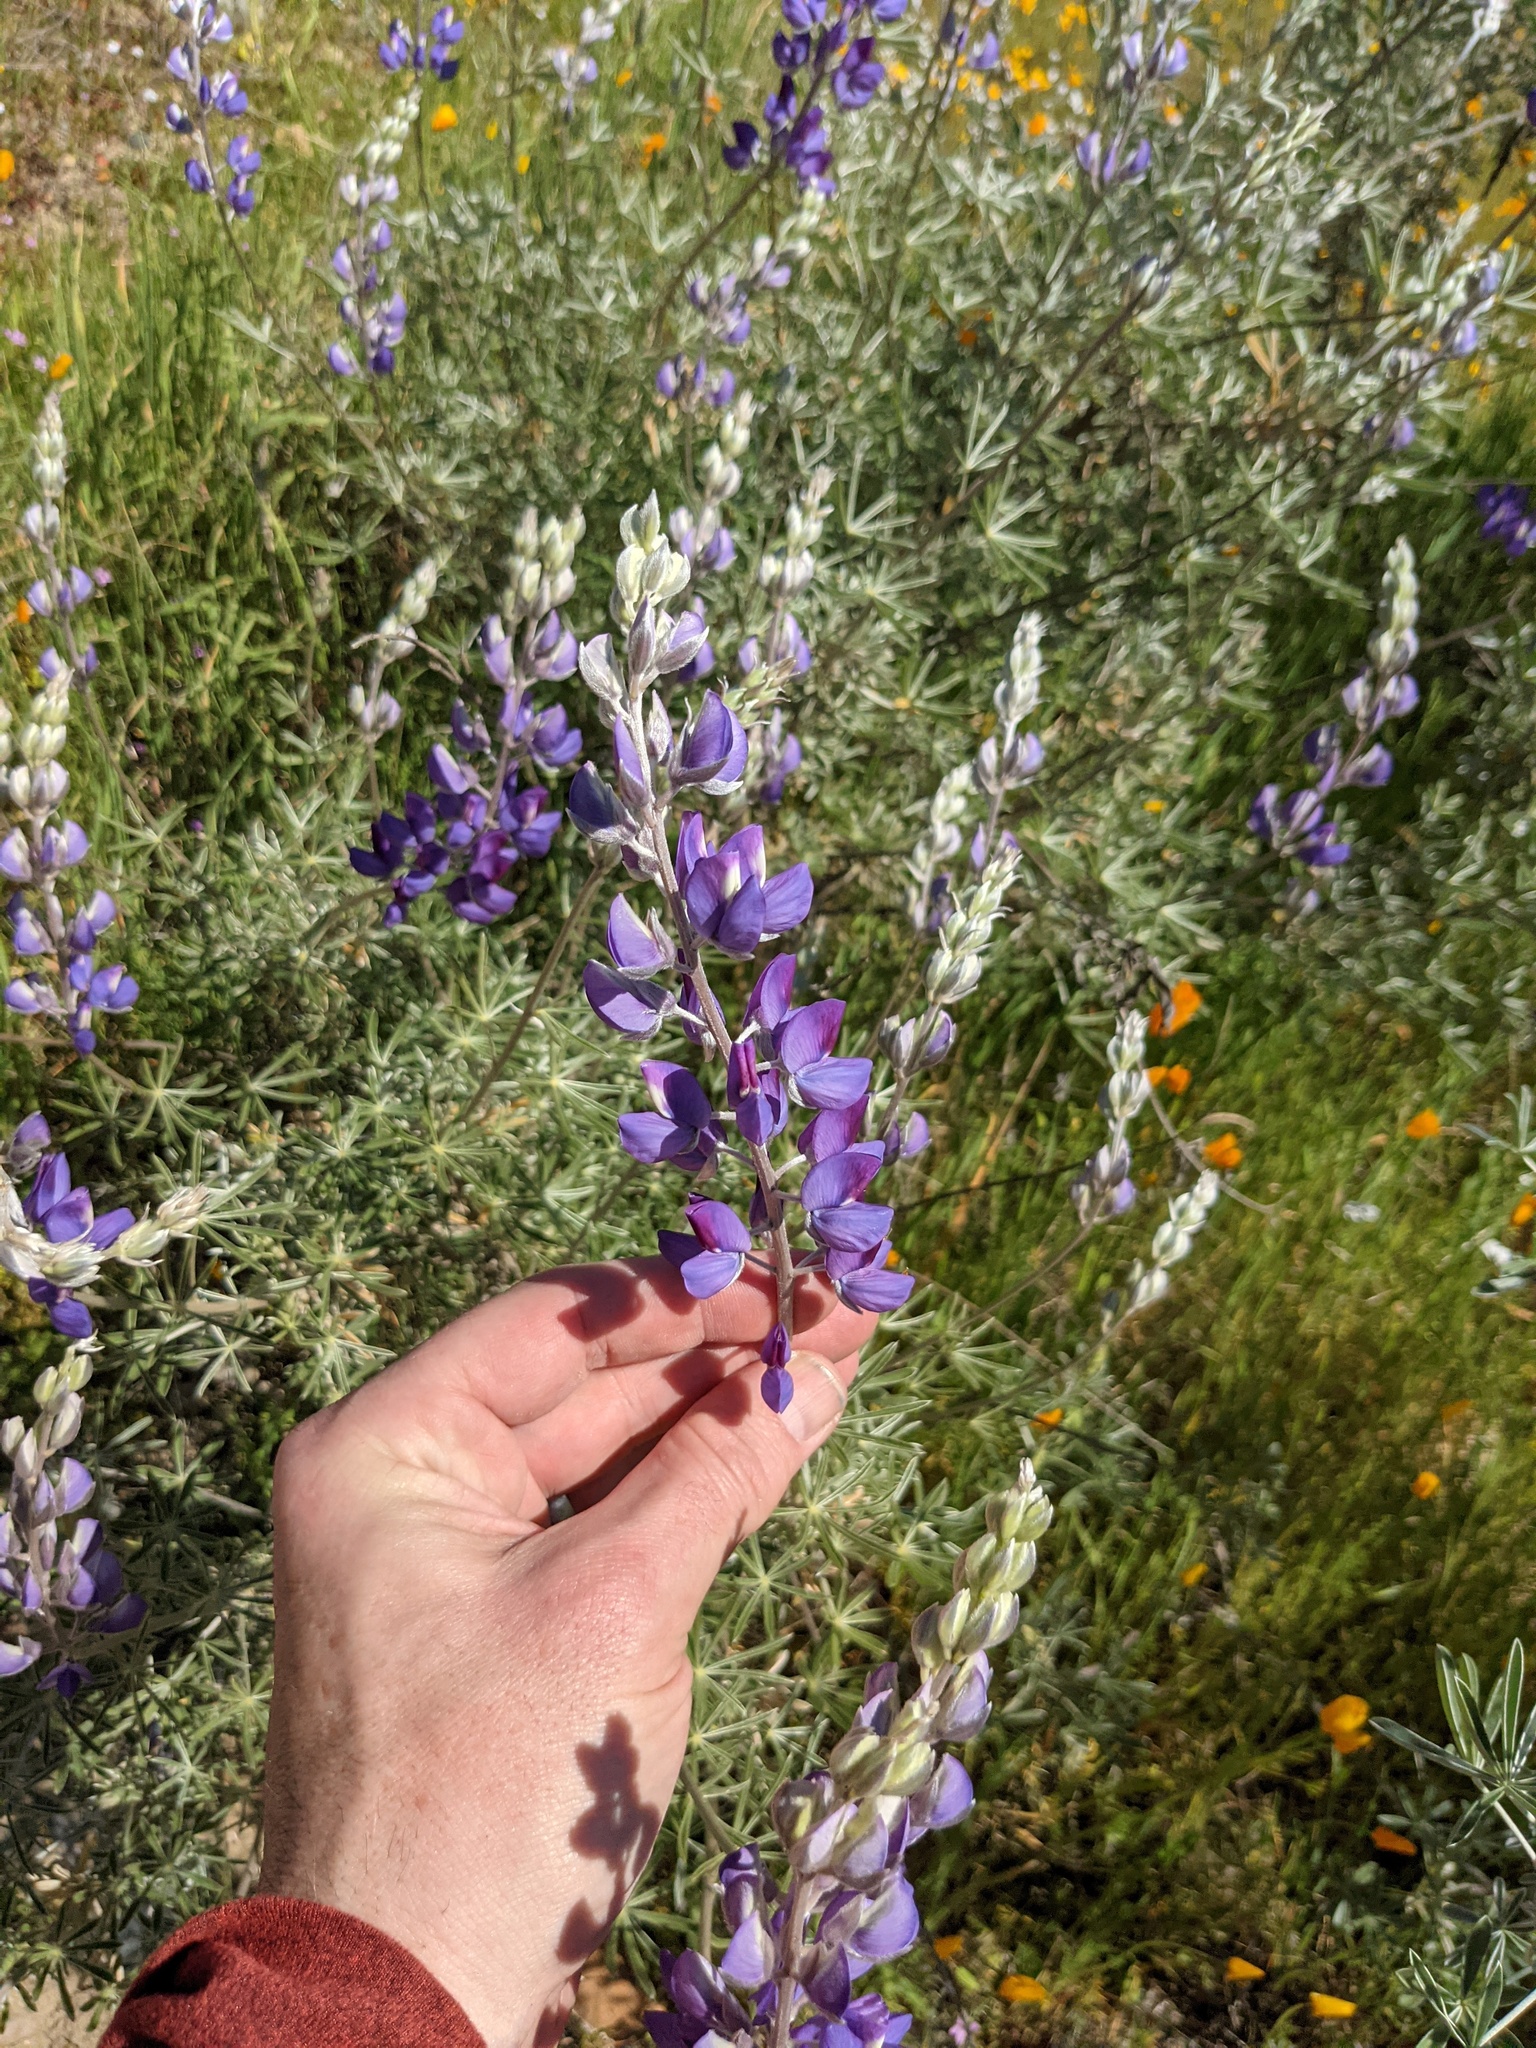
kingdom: Plantae
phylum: Tracheophyta
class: Magnoliopsida
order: Fabales
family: Fabaceae
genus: Lupinus
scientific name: Lupinus albifrons
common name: Foothill lupine
